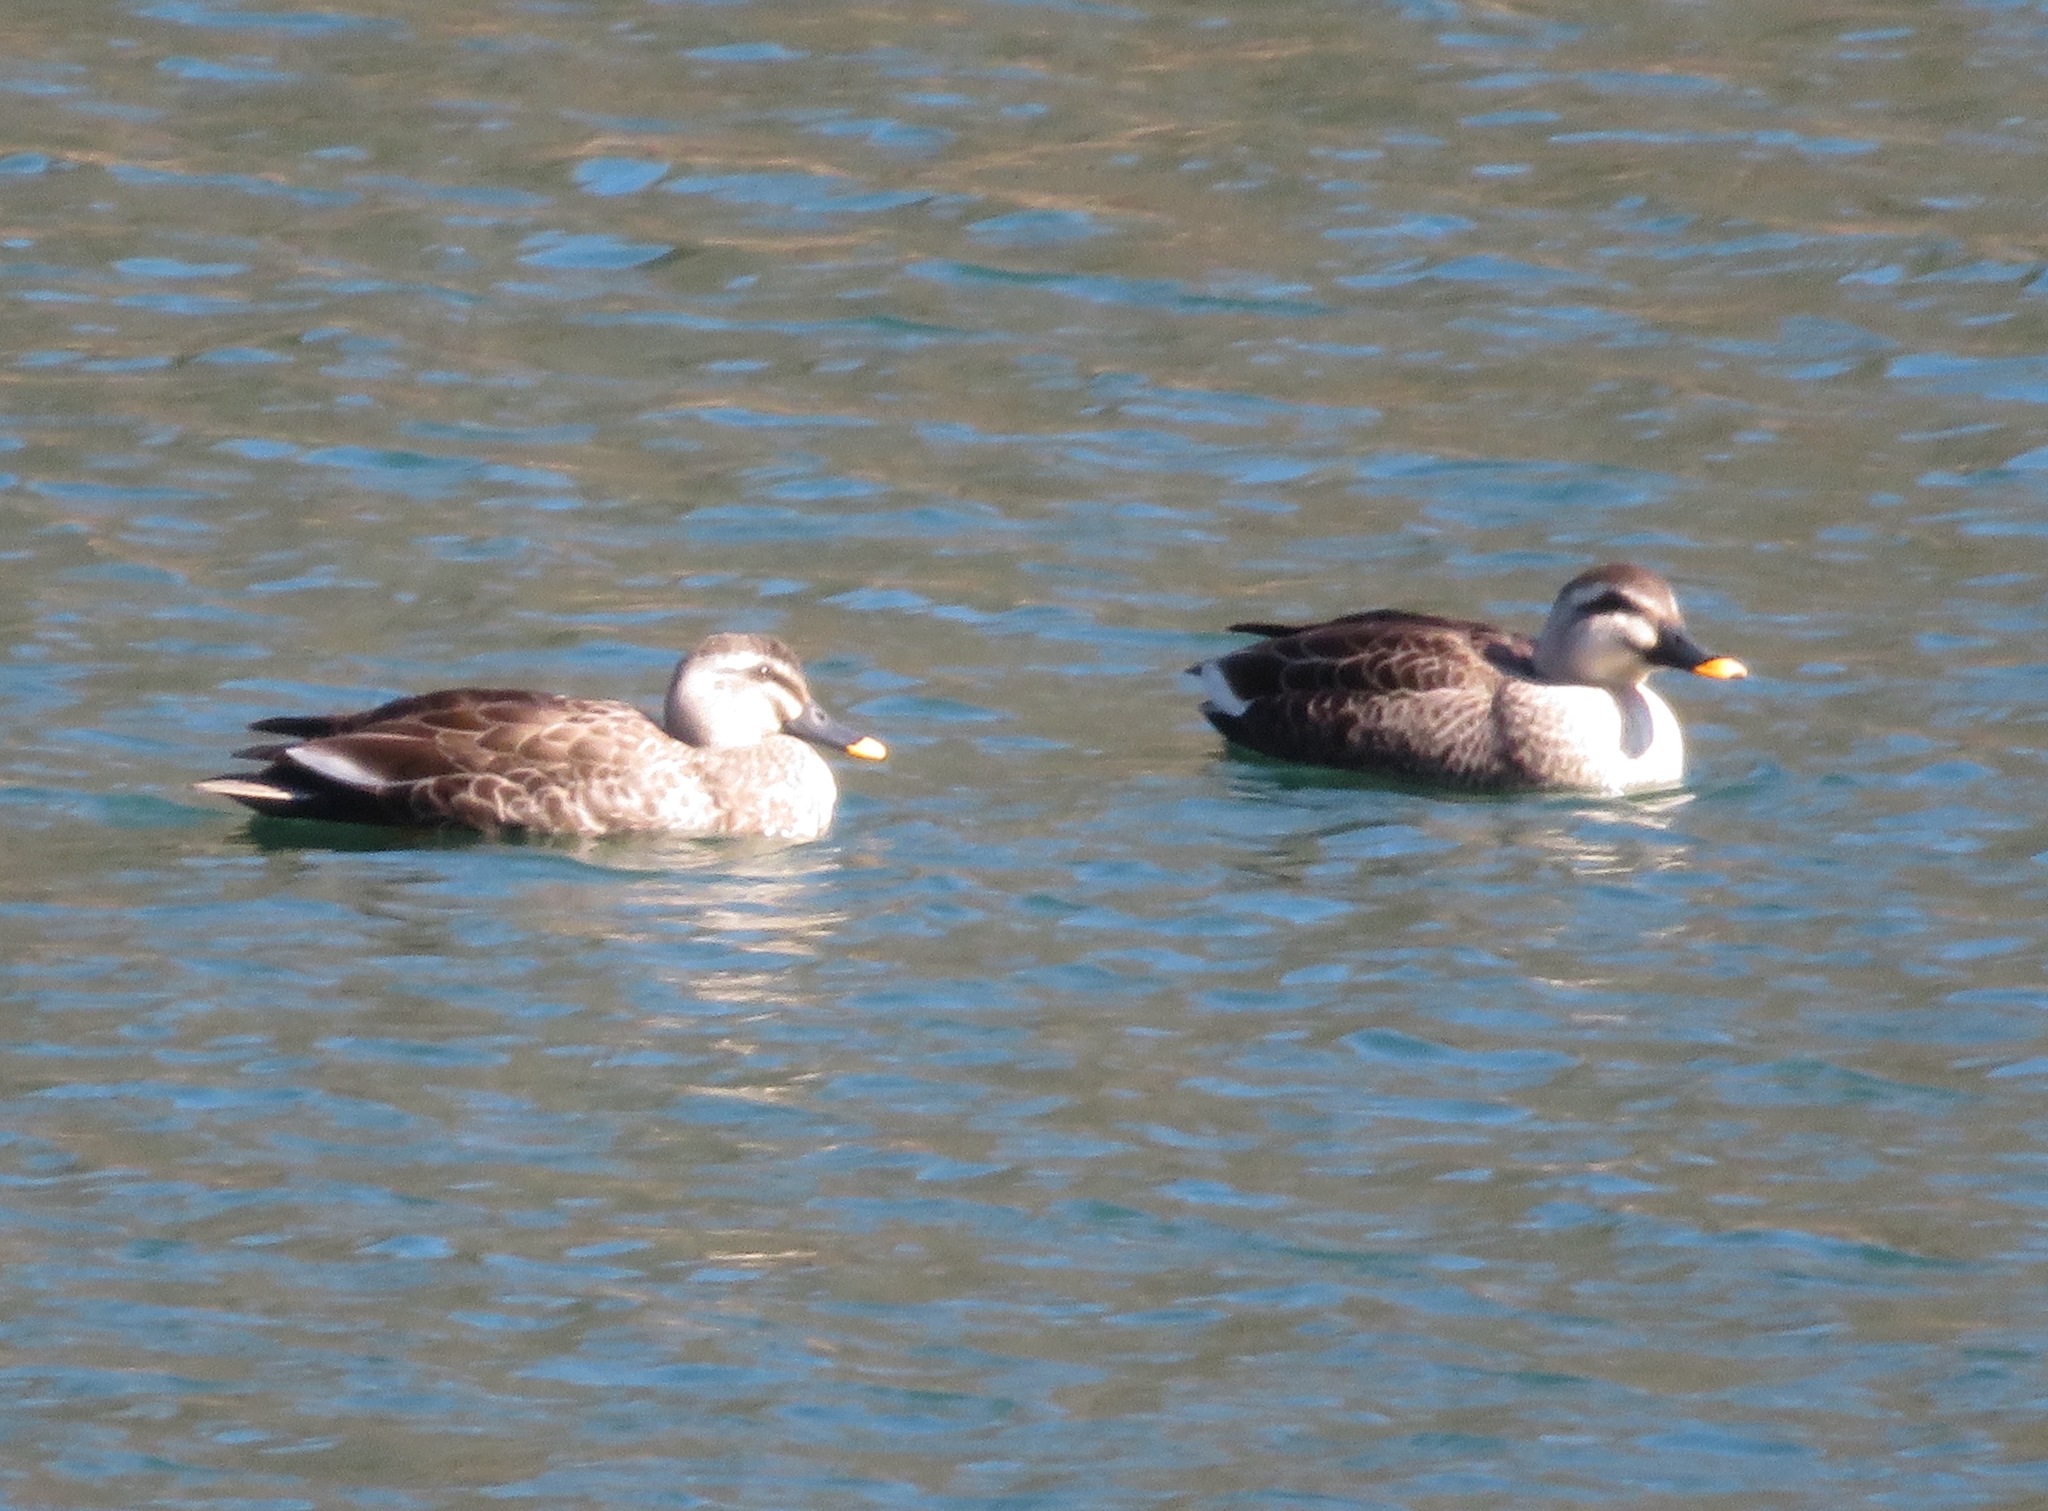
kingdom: Animalia
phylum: Chordata
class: Aves
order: Anseriformes
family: Anatidae
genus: Anas
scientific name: Anas zonorhyncha
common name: Eastern spot-billed duck
